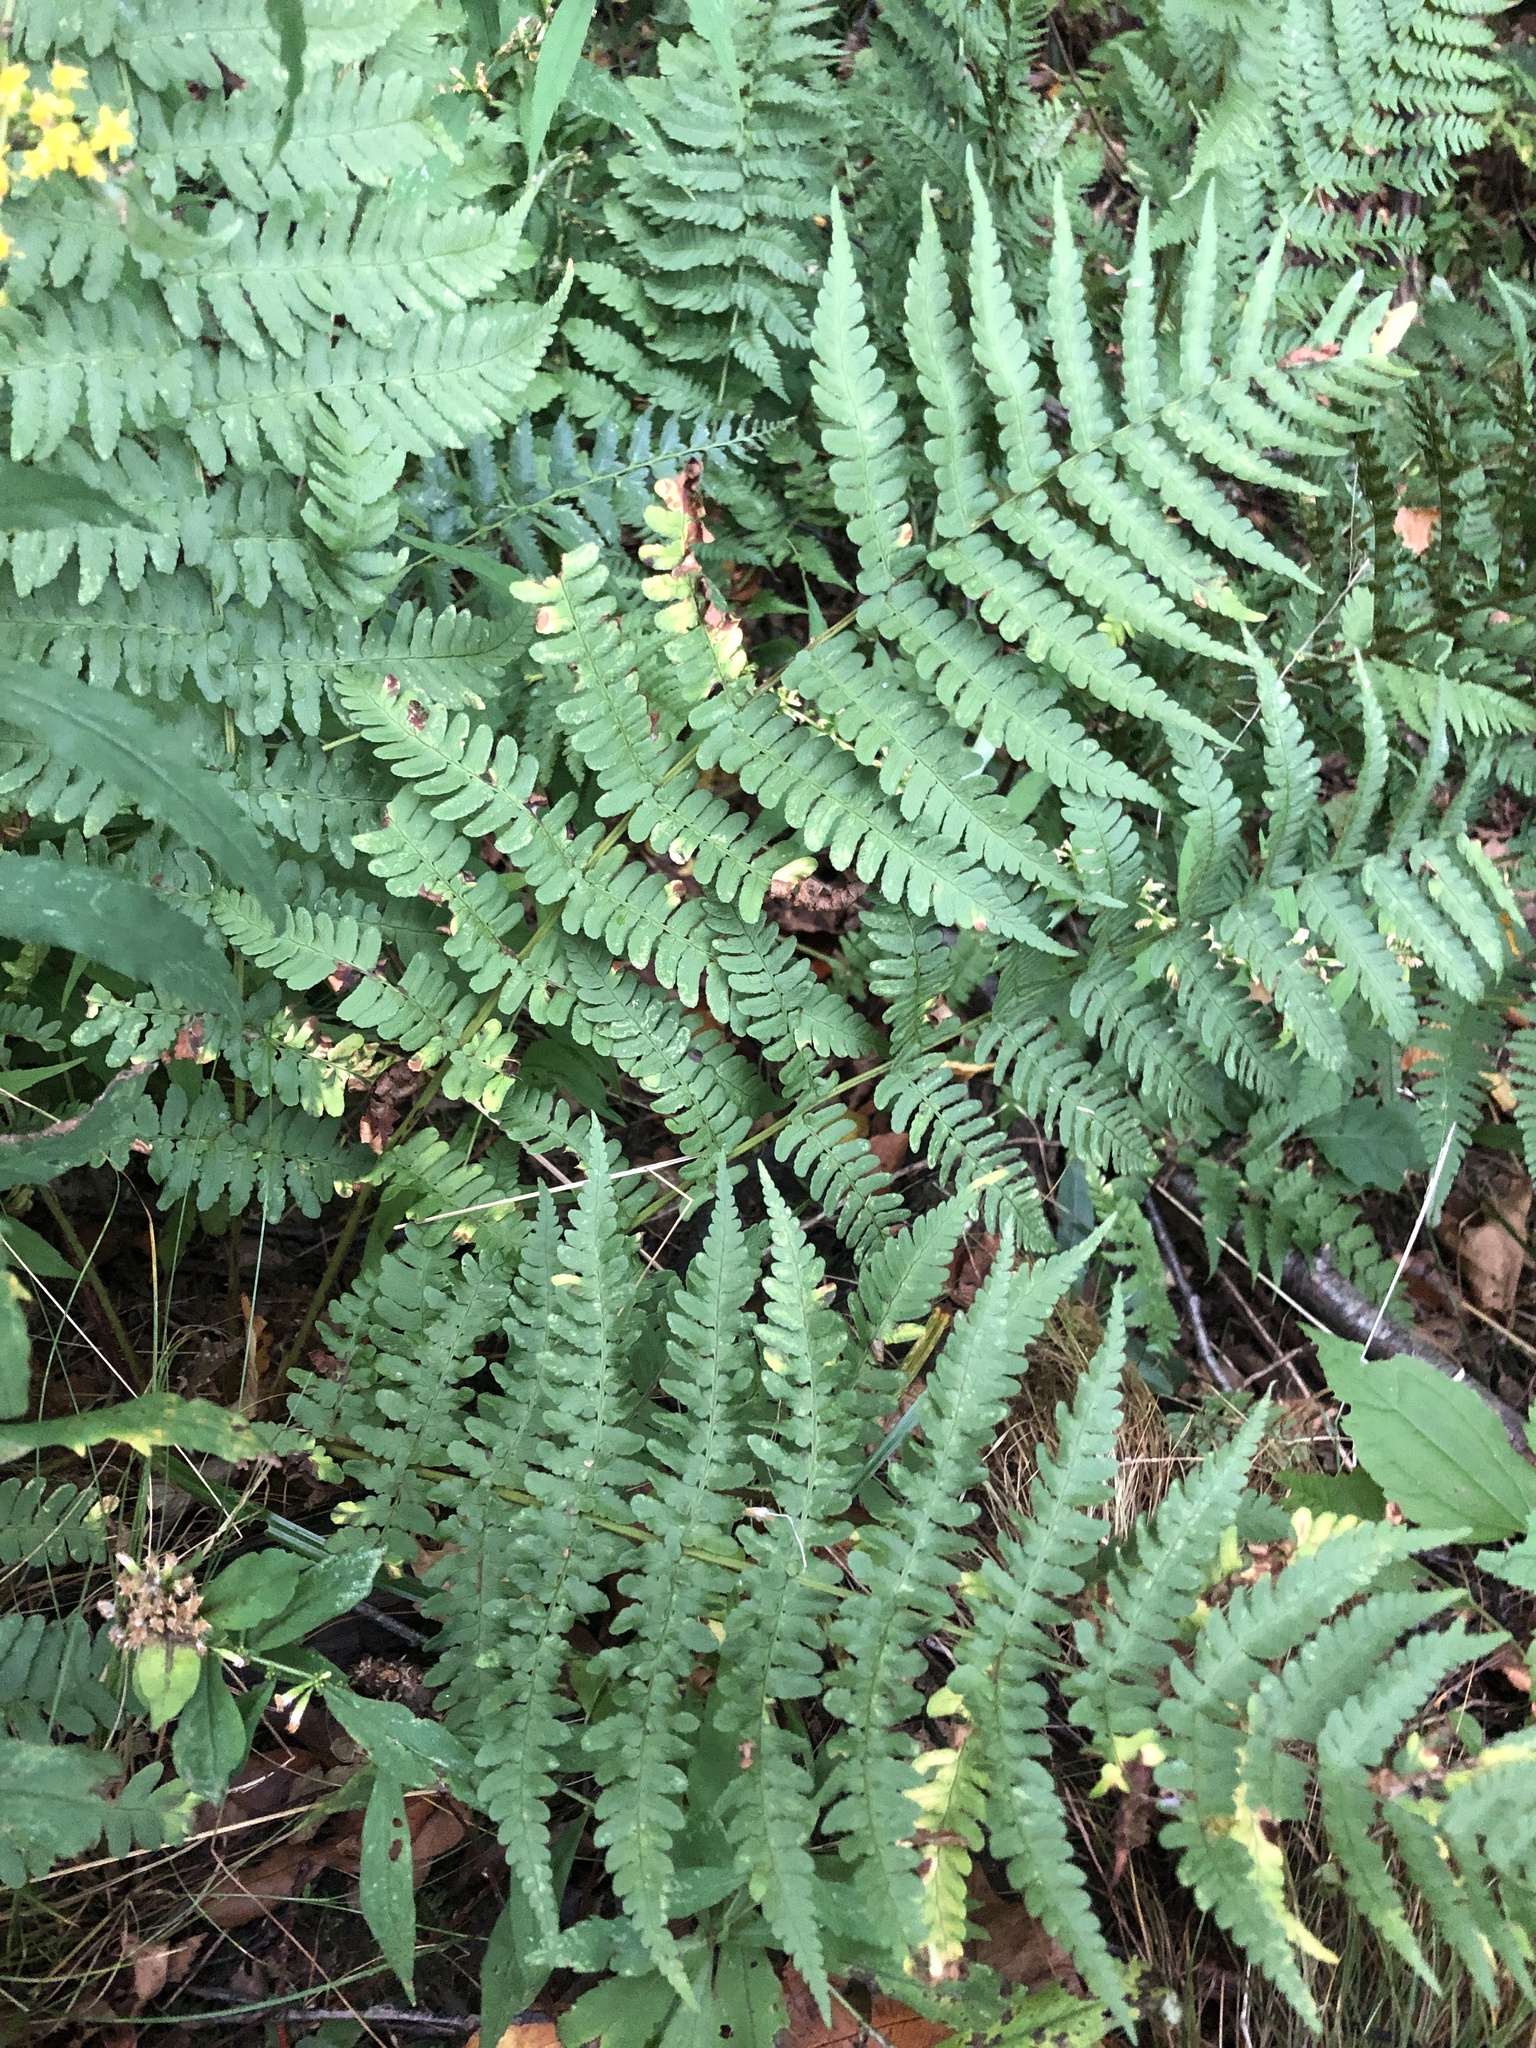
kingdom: Plantae
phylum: Tracheophyta
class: Polypodiopsida
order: Polypodiales
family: Dryopteridaceae
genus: Dryopteris
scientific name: Dryopteris marginalis
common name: Marginal wood fern
